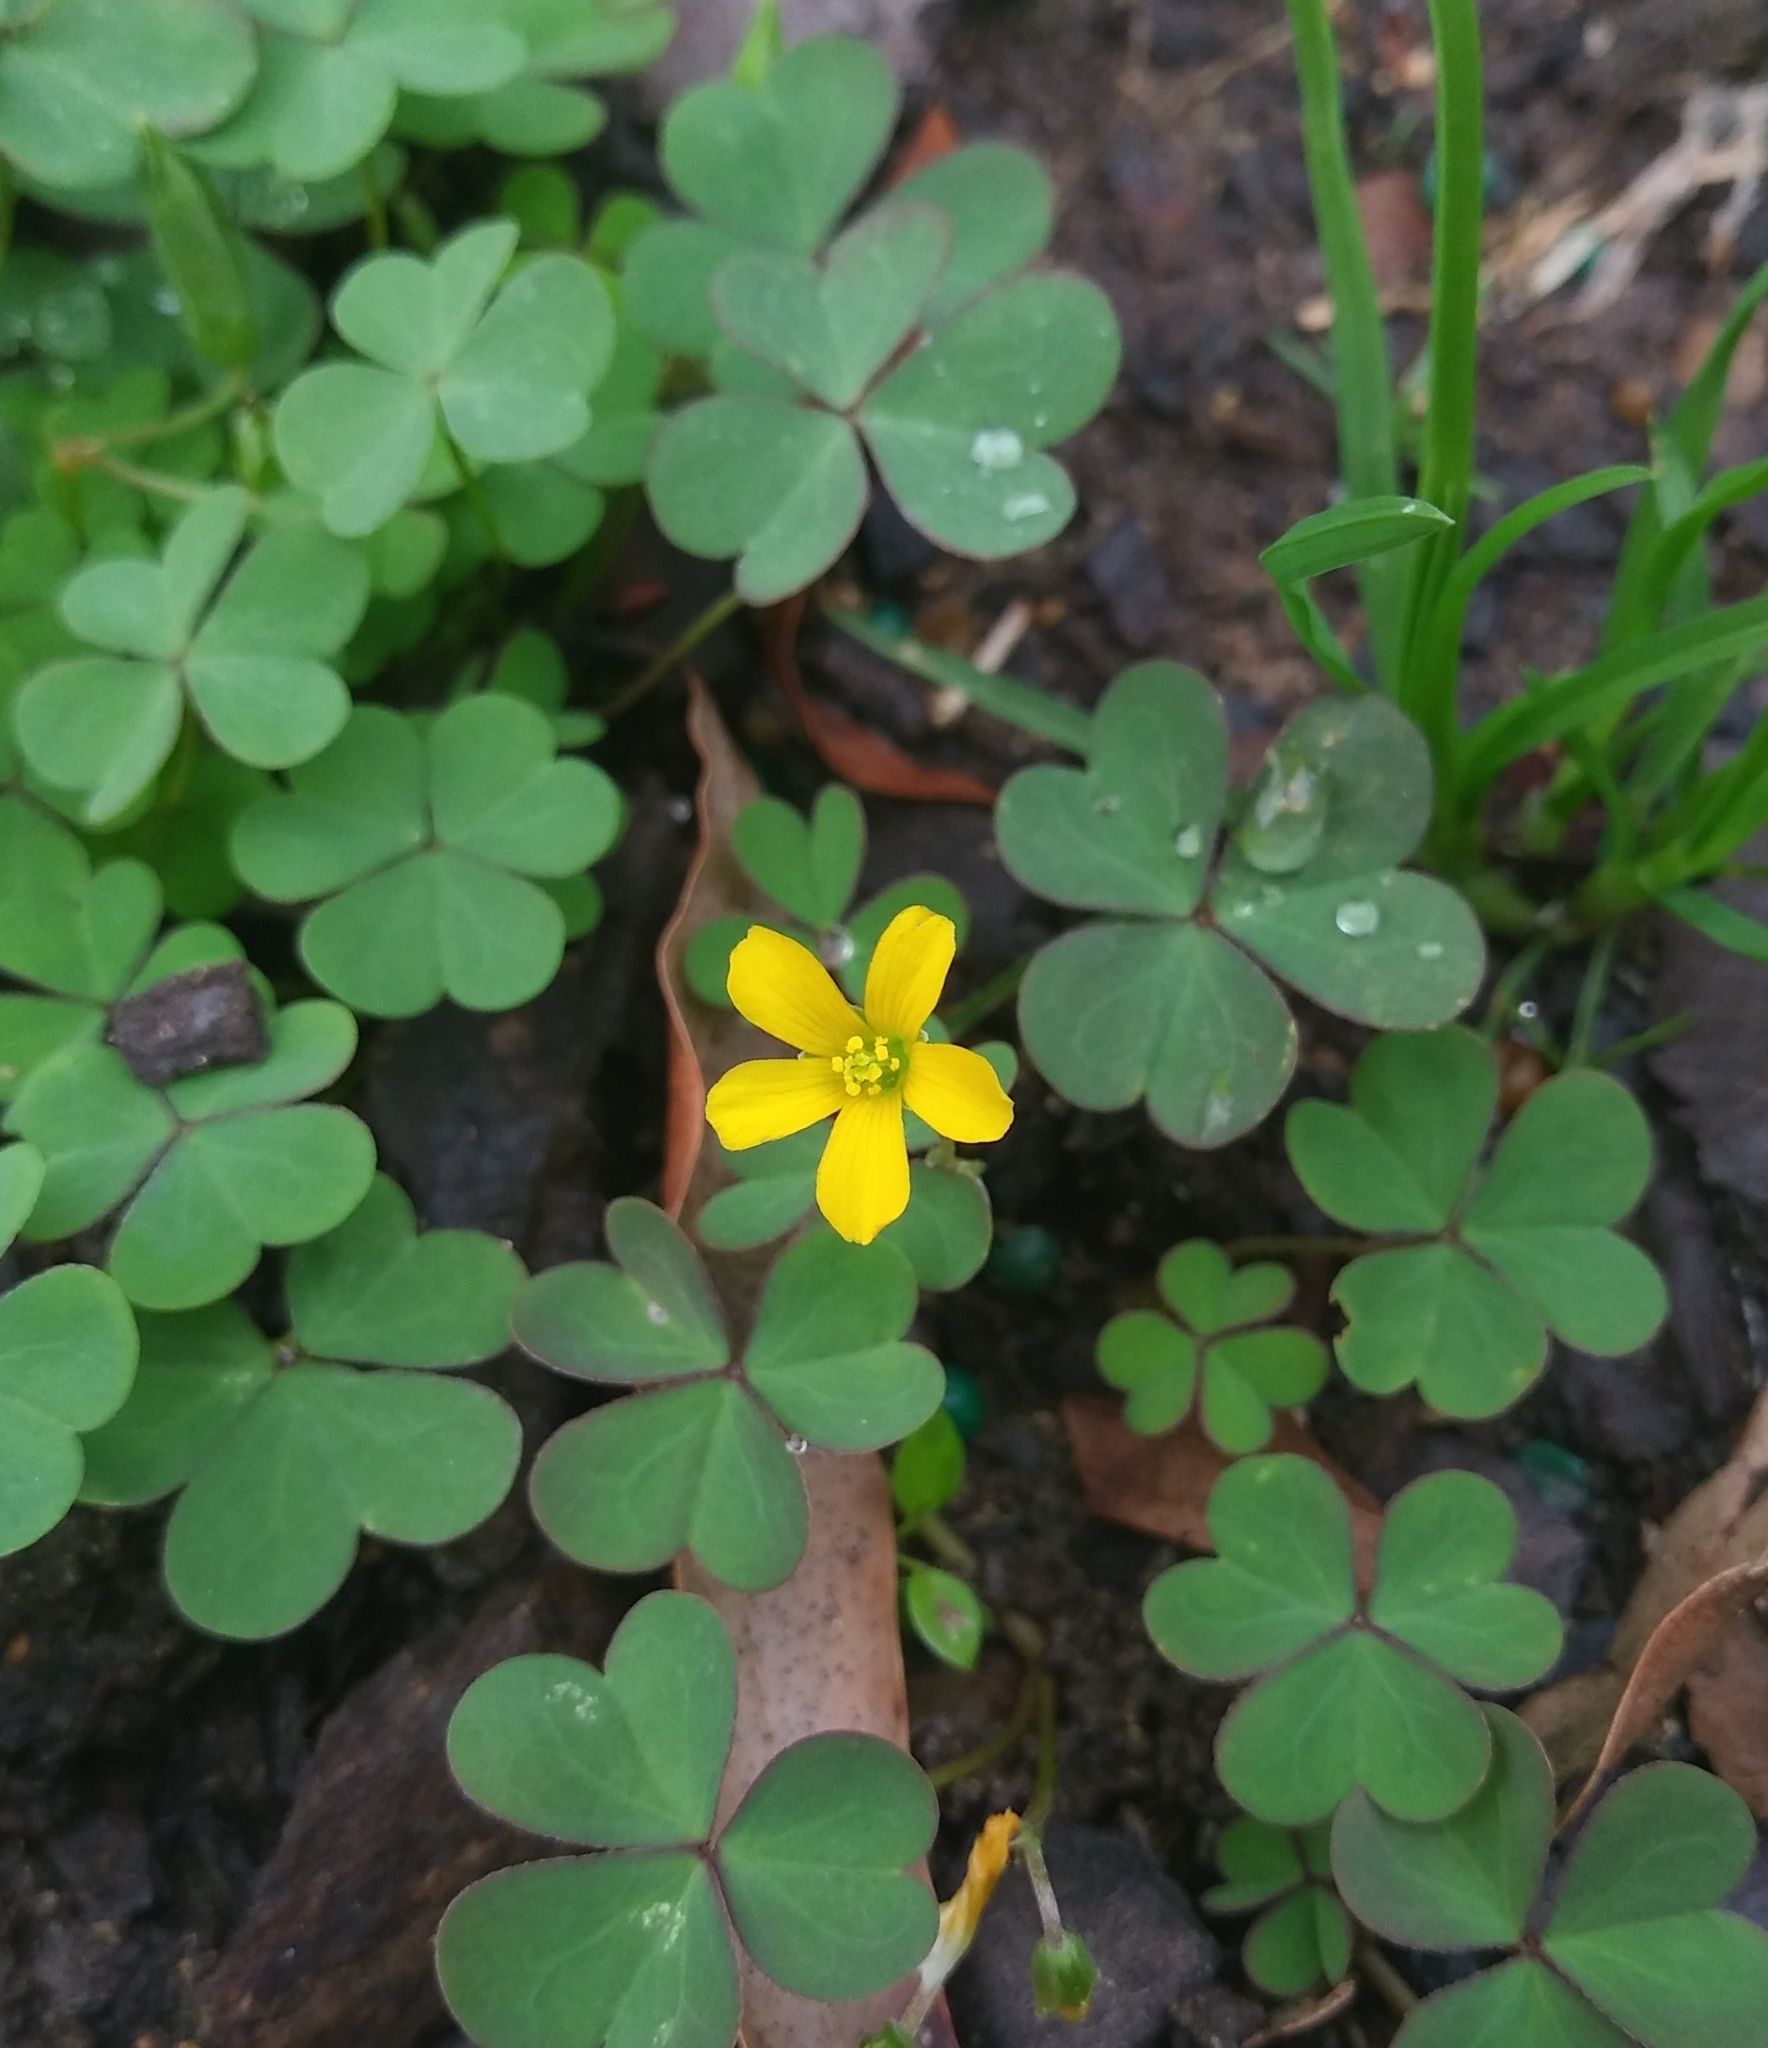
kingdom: Plantae
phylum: Tracheophyta
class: Magnoliopsida
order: Oxalidales
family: Oxalidaceae
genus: Oxalis
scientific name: Oxalis corniculata
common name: Procumbent yellow-sorrel
